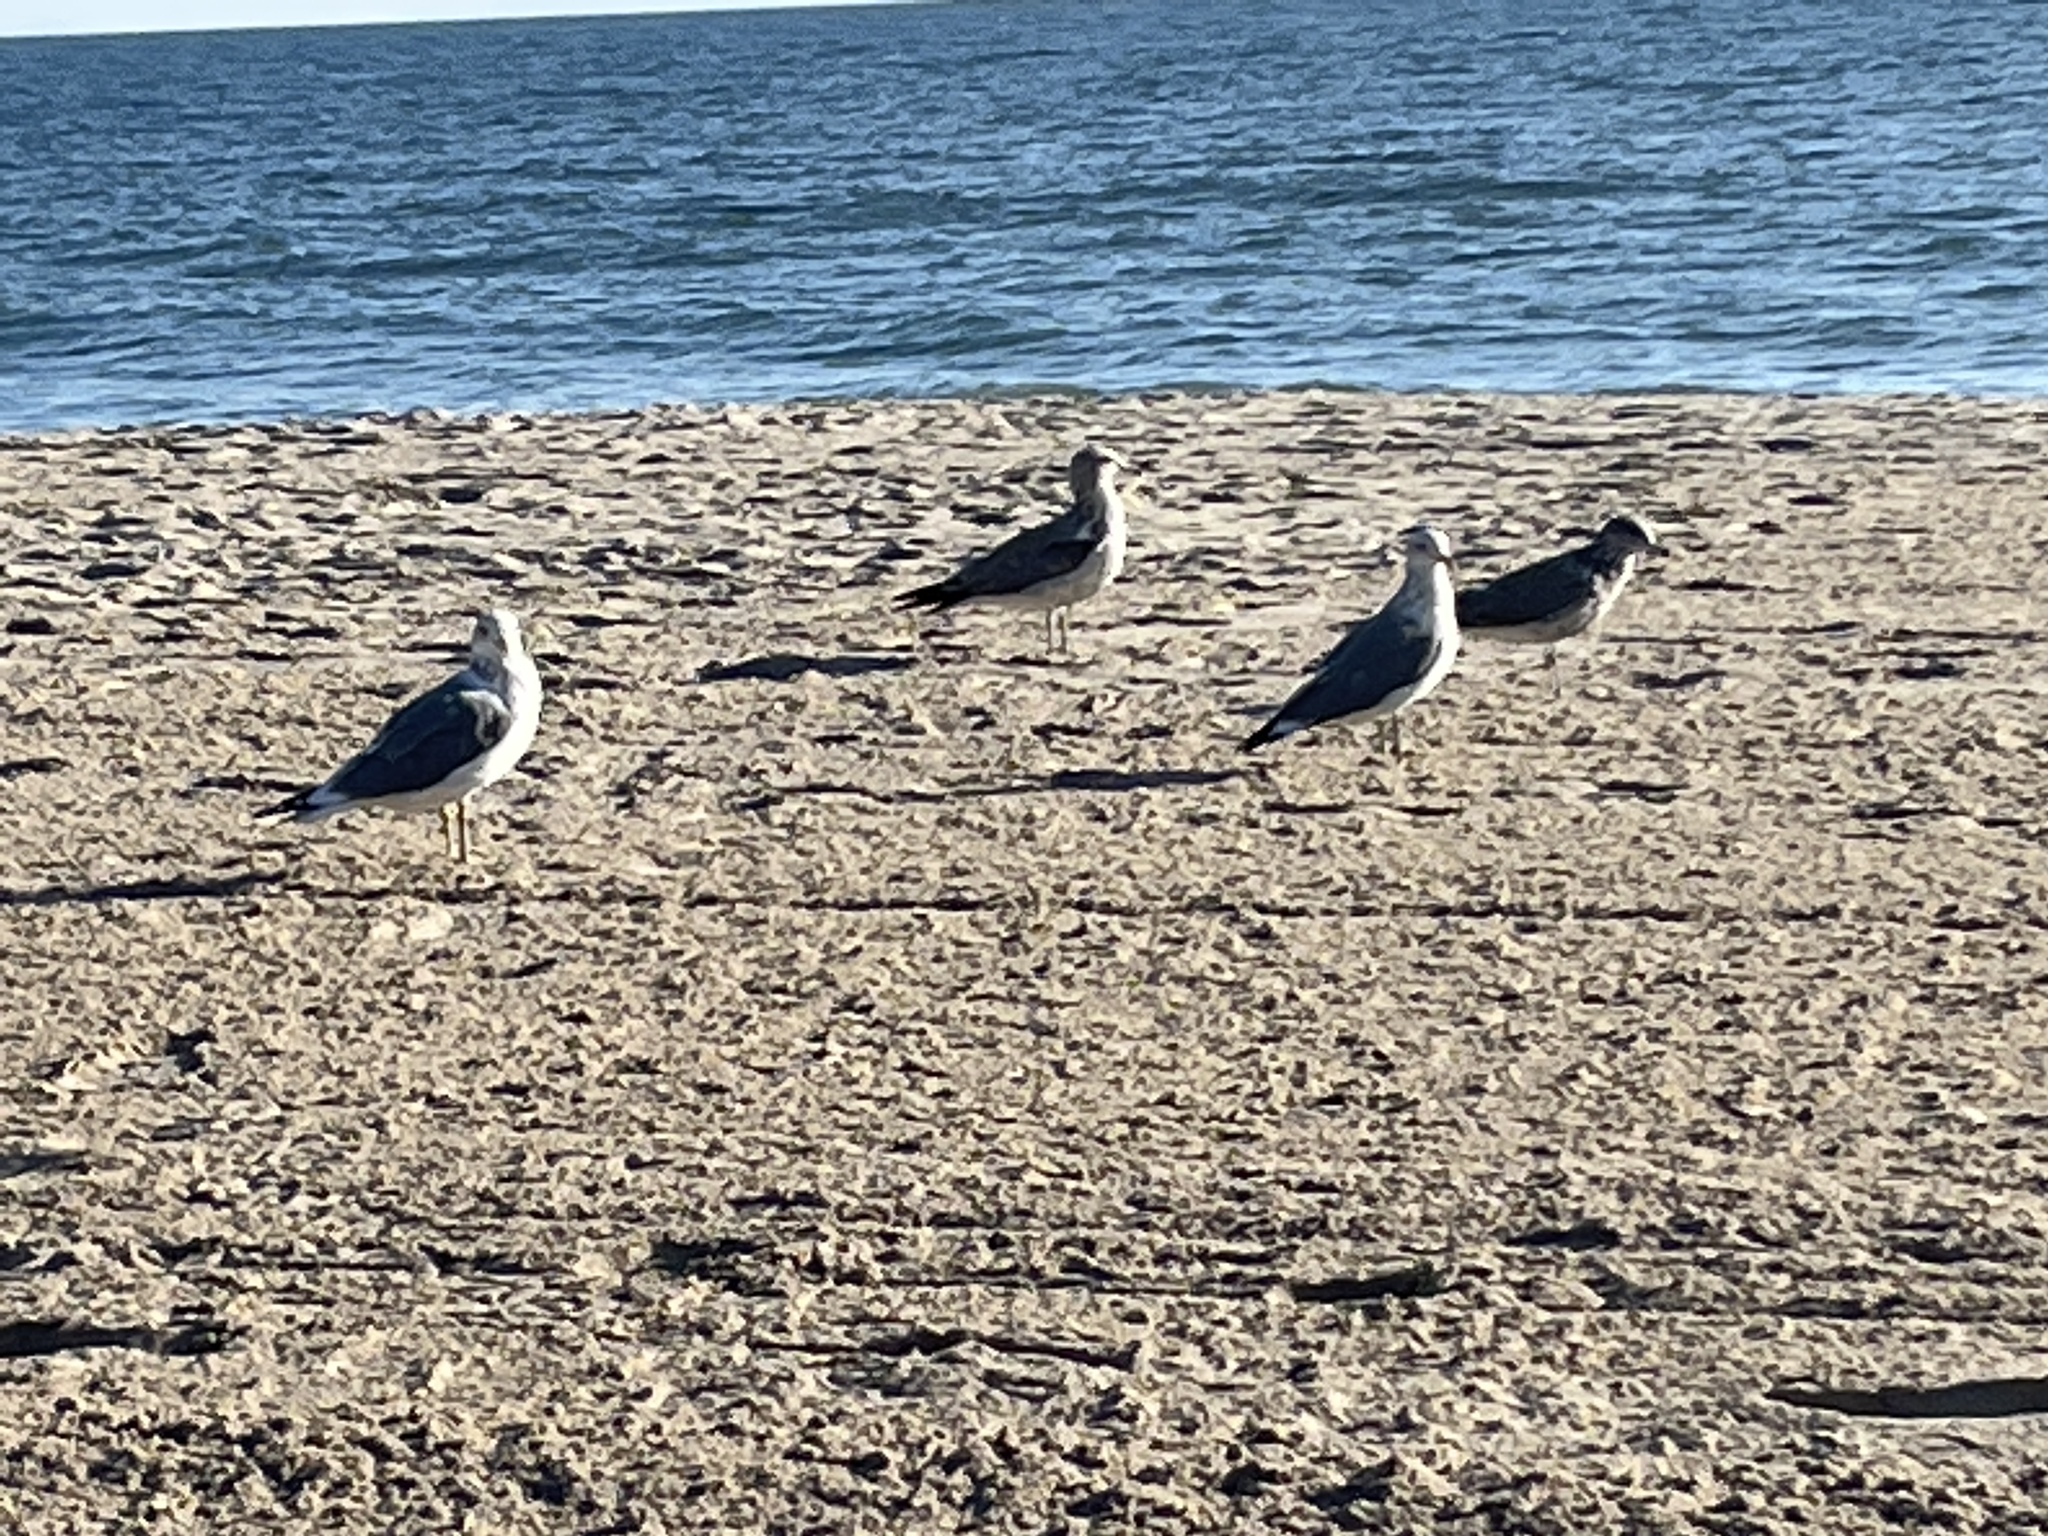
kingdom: Animalia
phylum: Chordata
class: Aves
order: Charadriiformes
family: Laridae
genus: Larus
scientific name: Larus californicus
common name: California gull
